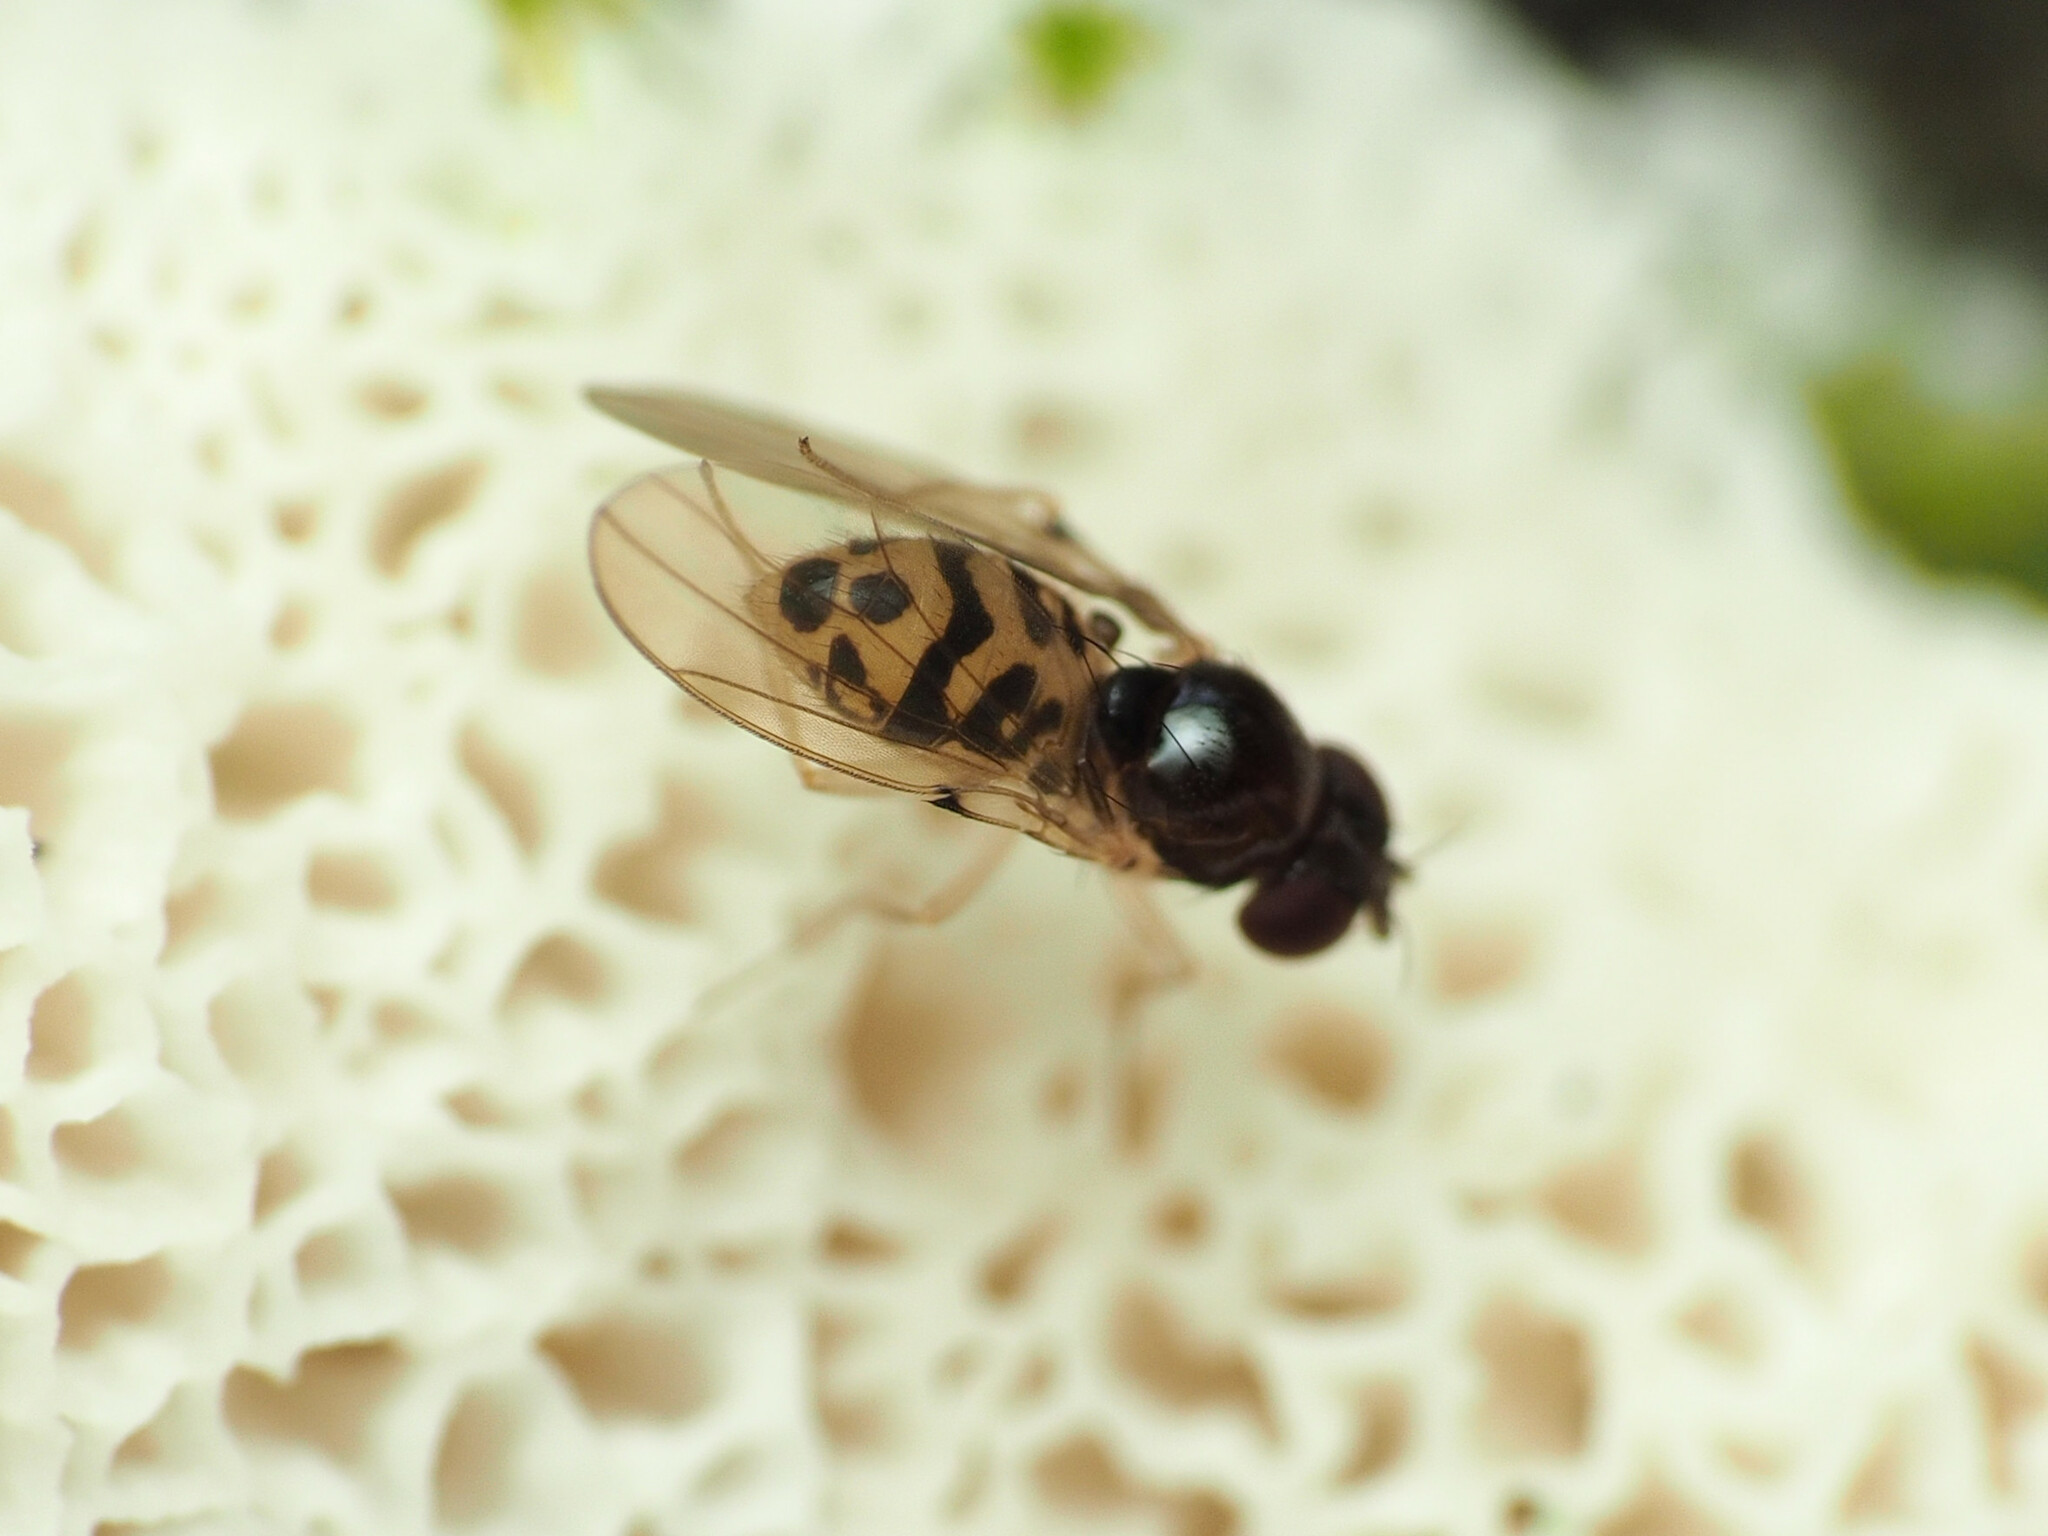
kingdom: Animalia
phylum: Arthropoda
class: Insecta
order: Diptera
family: Drosophilidae
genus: Mycodrosophila
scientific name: Mycodrosophila claytonae
